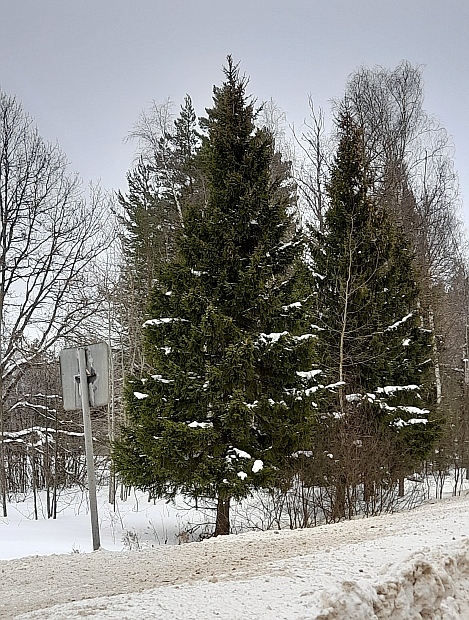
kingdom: Plantae
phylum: Tracheophyta
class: Pinopsida
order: Pinales
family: Pinaceae
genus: Picea
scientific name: Picea abies
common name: Norway spruce
